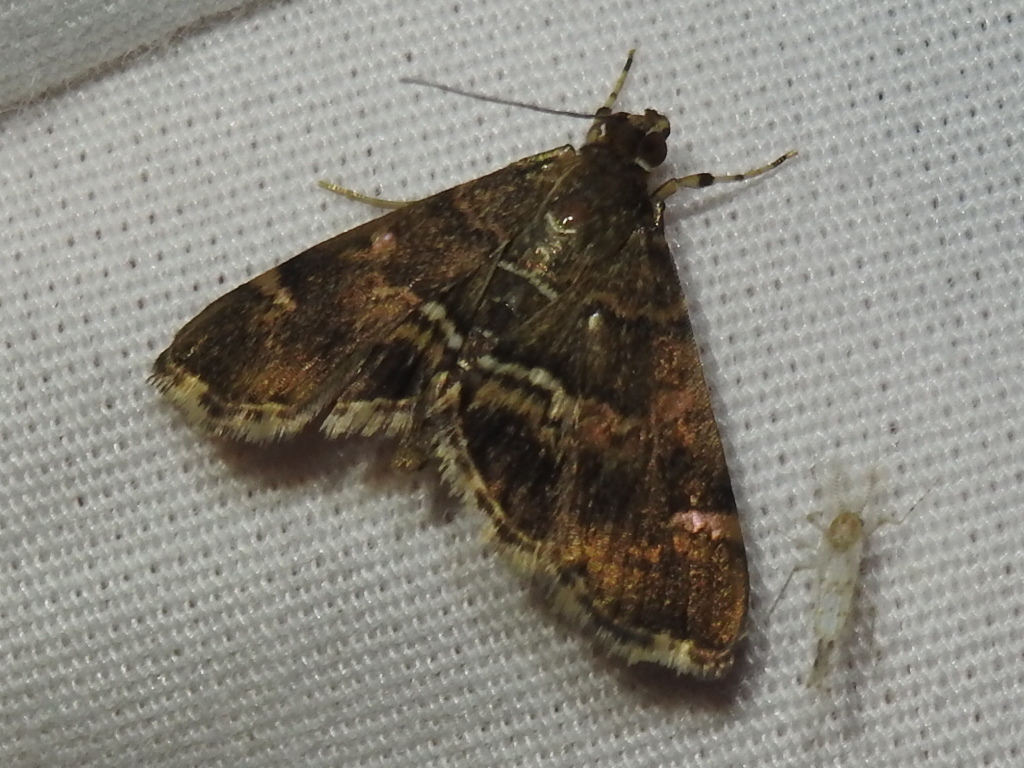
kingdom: Animalia
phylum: Arthropoda
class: Insecta
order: Lepidoptera
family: Crambidae
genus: Hymenia
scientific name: Hymenia perspectalis
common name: Spotted beet webworm
